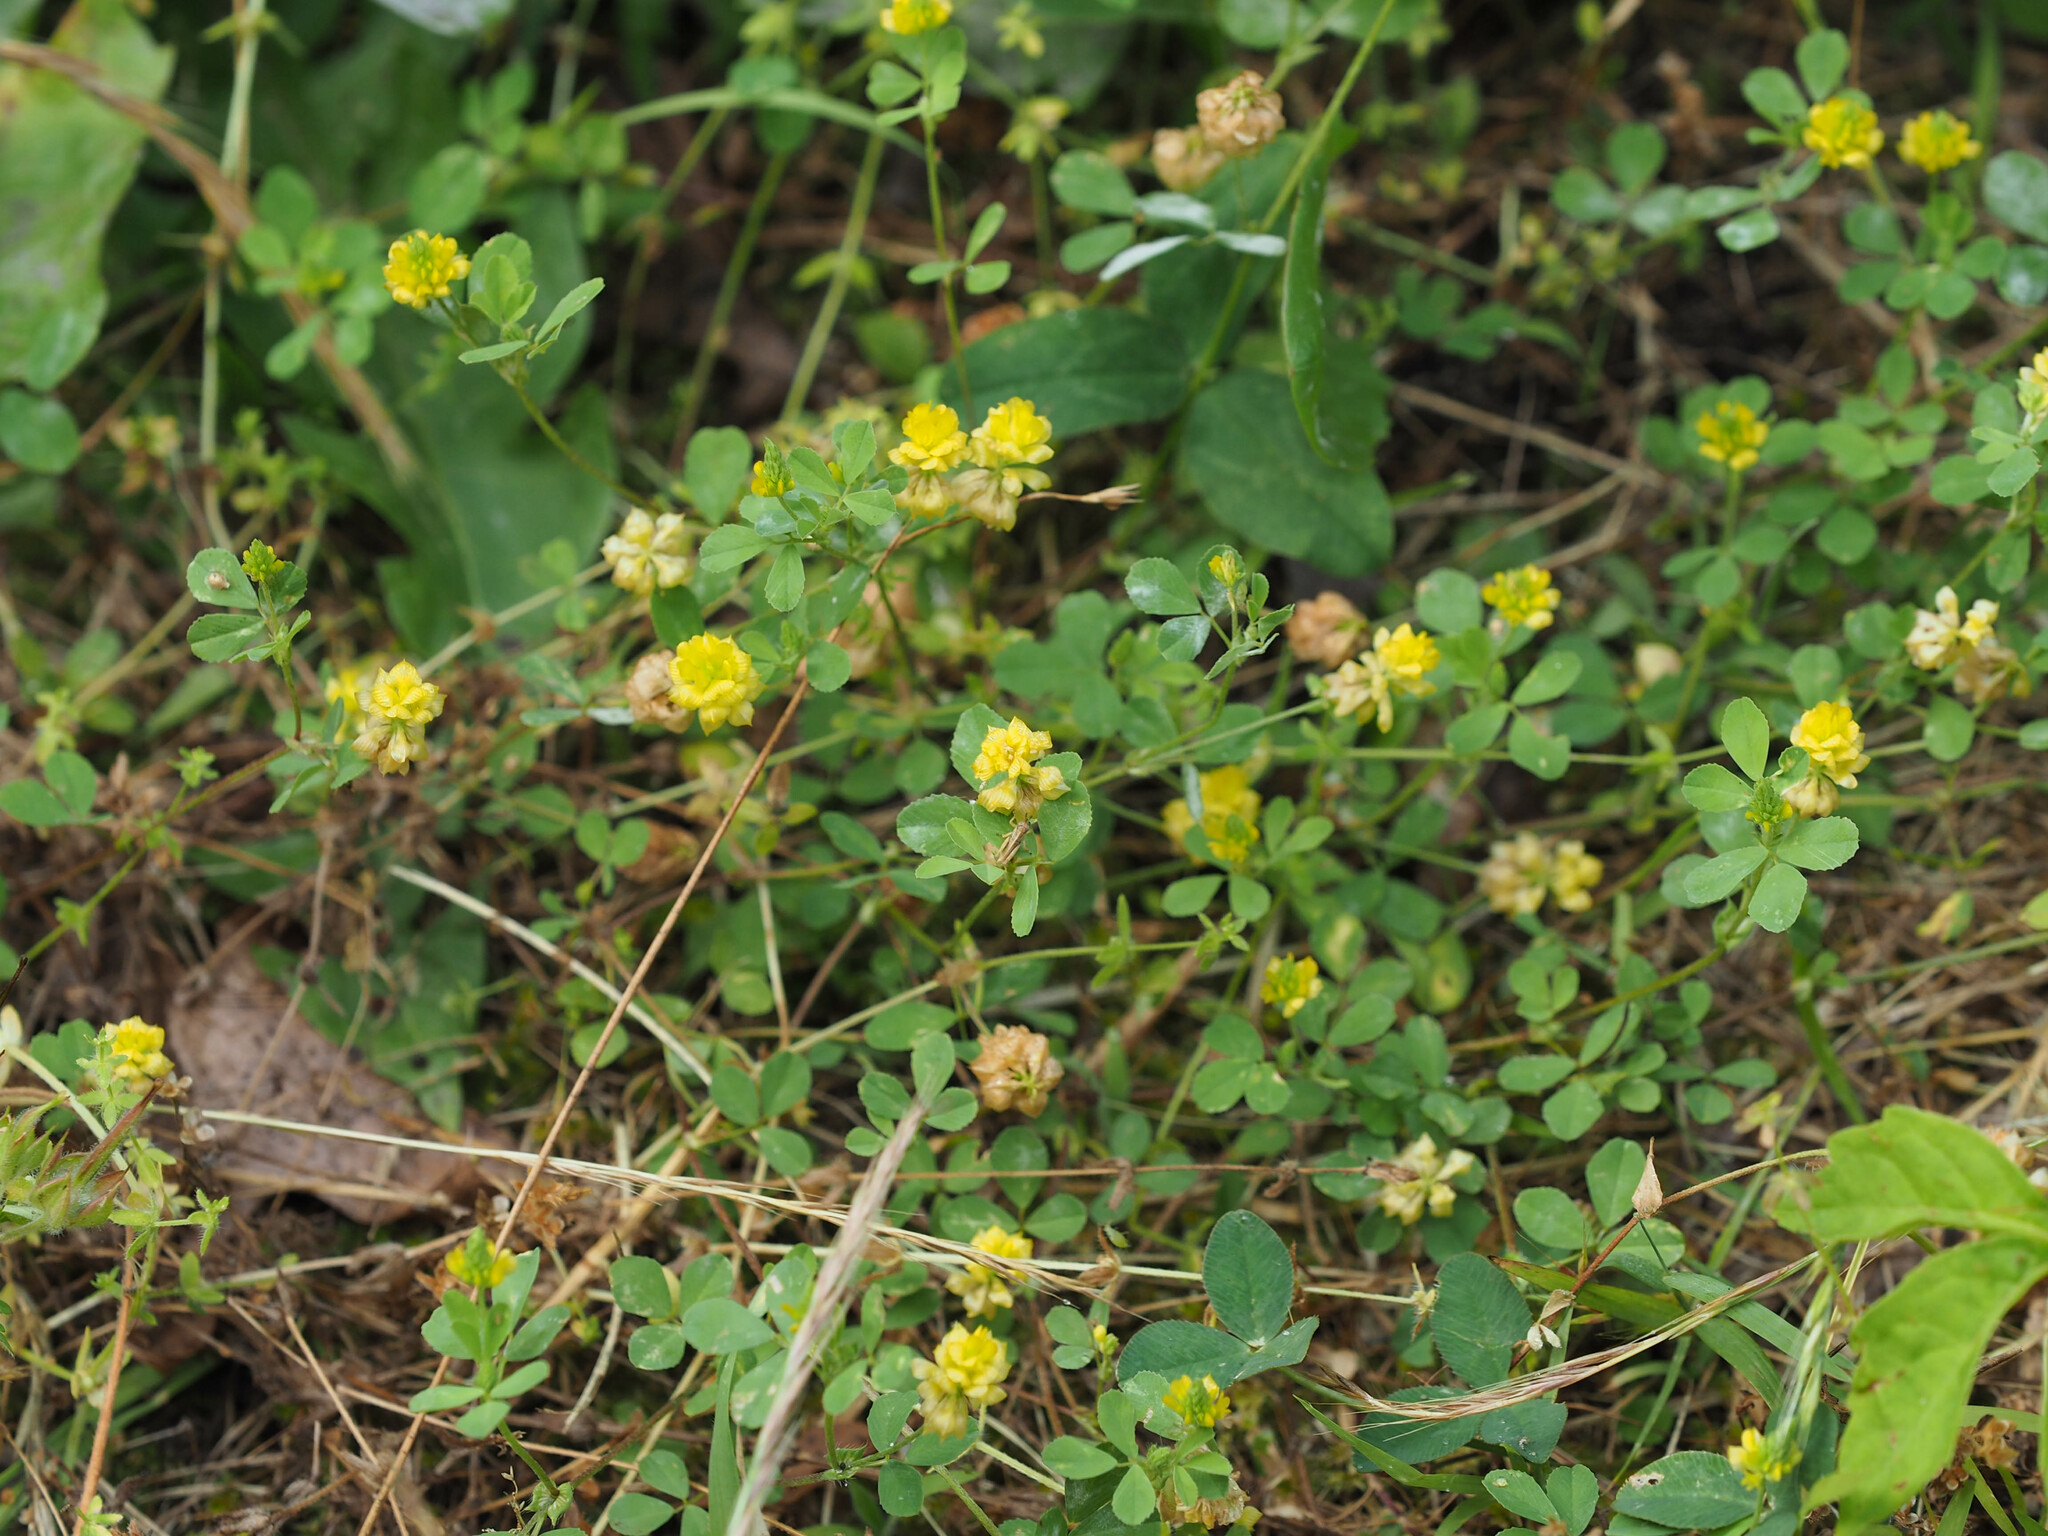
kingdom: Plantae
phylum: Tracheophyta
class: Magnoliopsida
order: Fabales
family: Fabaceae
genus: Trifolium
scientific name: Trifolium campestre
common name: Field clover
